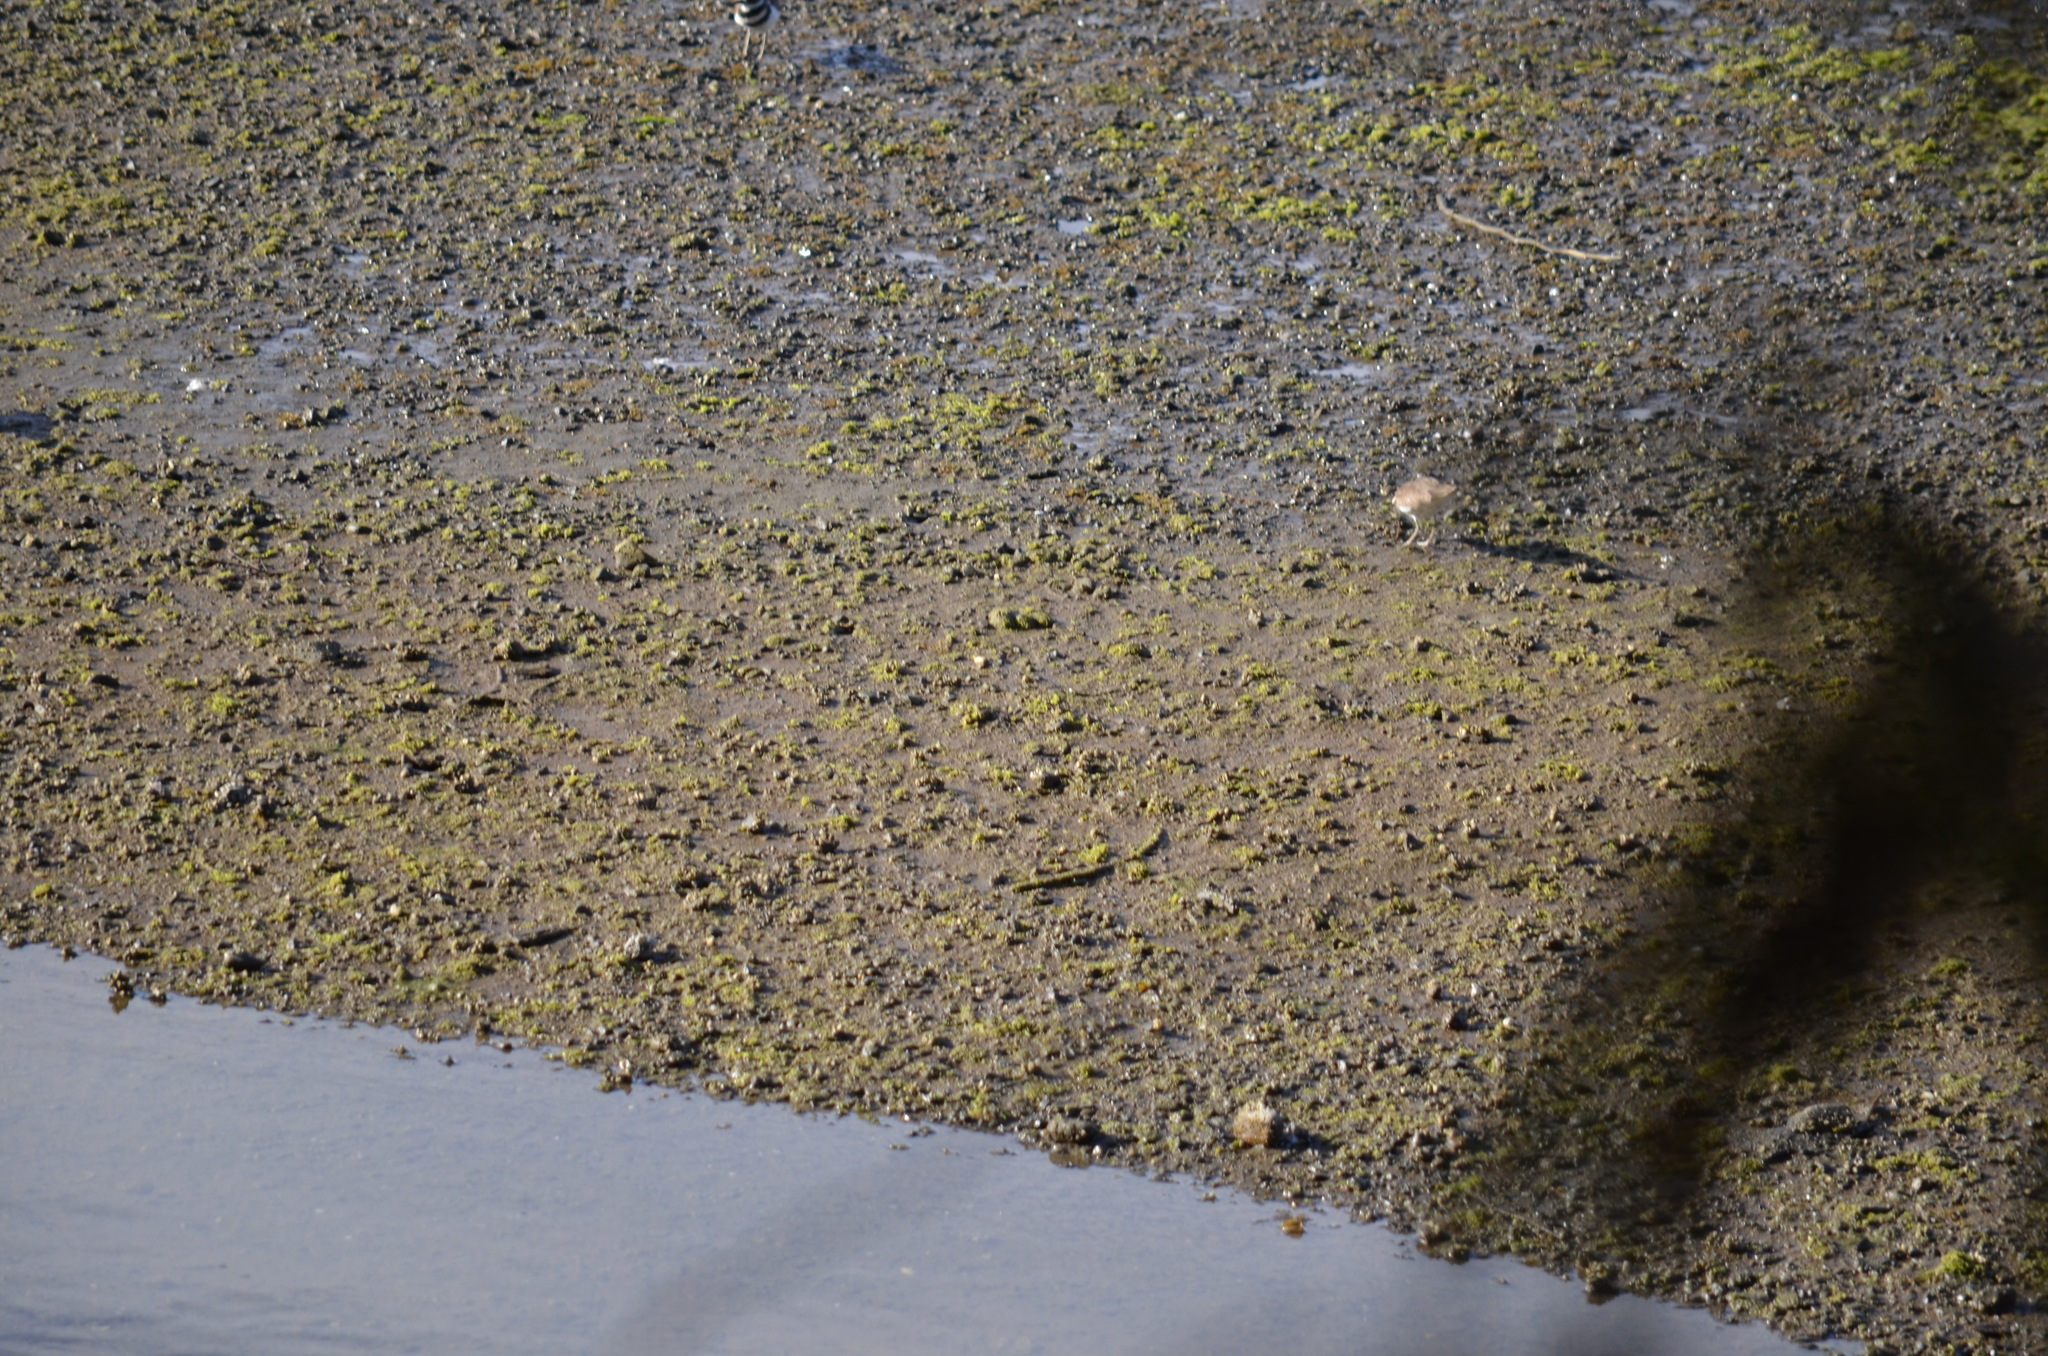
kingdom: Animalia
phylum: Chordata
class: Aves
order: Charadriiformes
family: Charadriidae
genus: Charadrius
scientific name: Charadrius vociferus
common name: Killdeer
